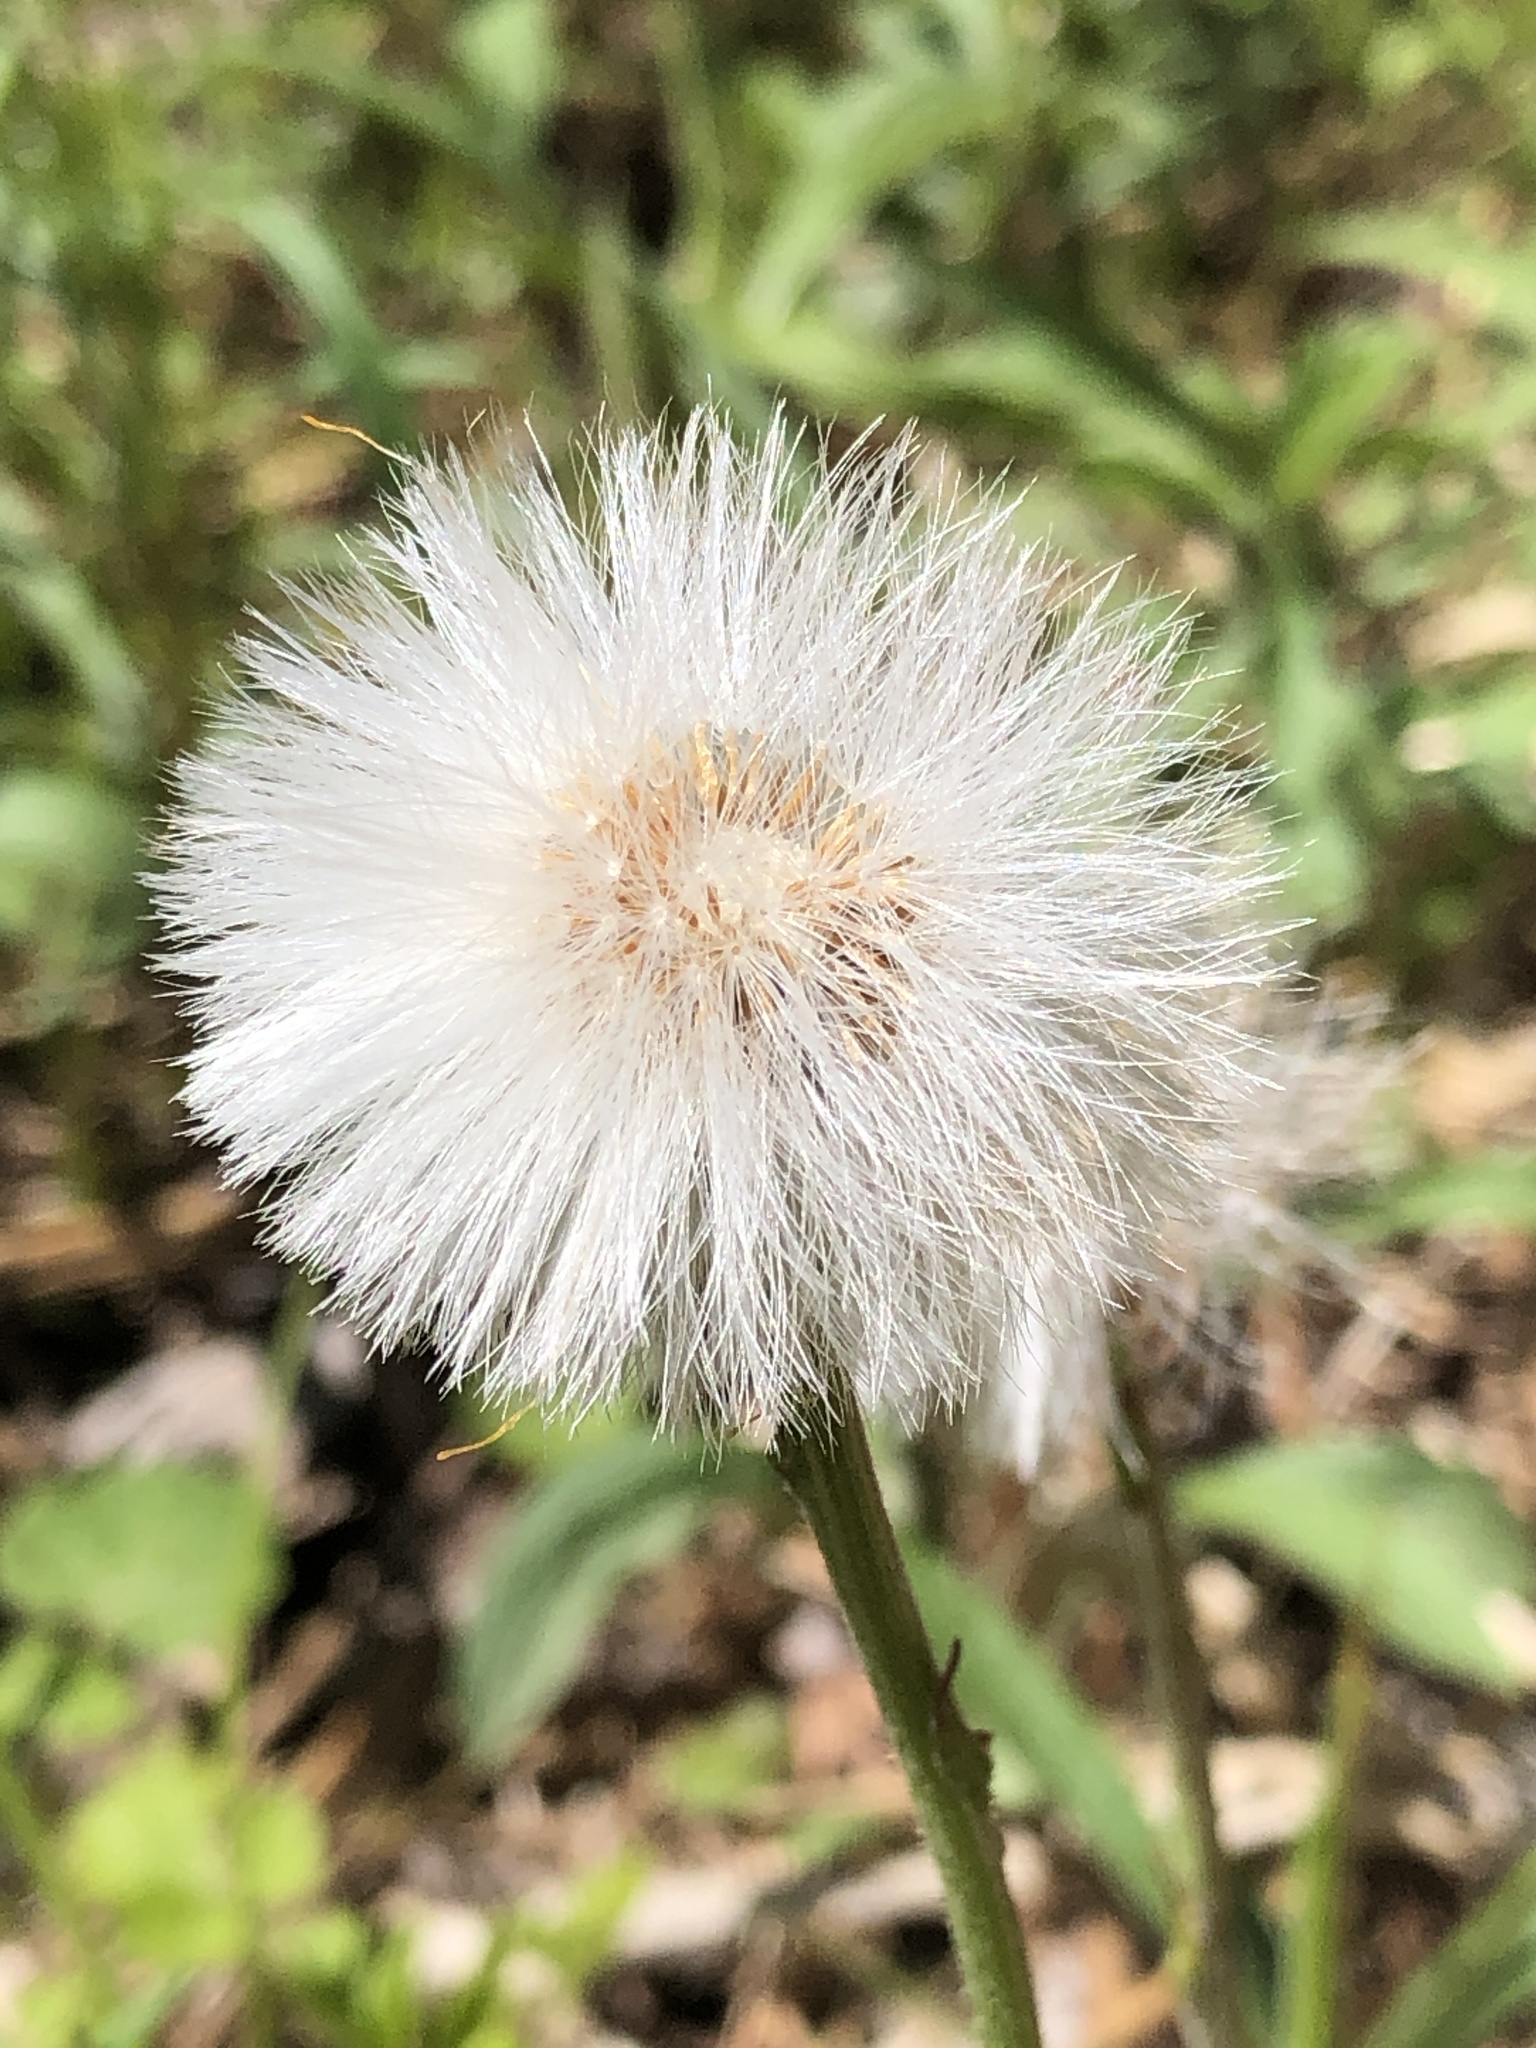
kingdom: Plantae
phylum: Tracheophyta
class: Magnoliopsida
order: Asterales
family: Asteraceae
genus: Tussilago
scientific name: Tussilago farfara
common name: Coltsfoot
